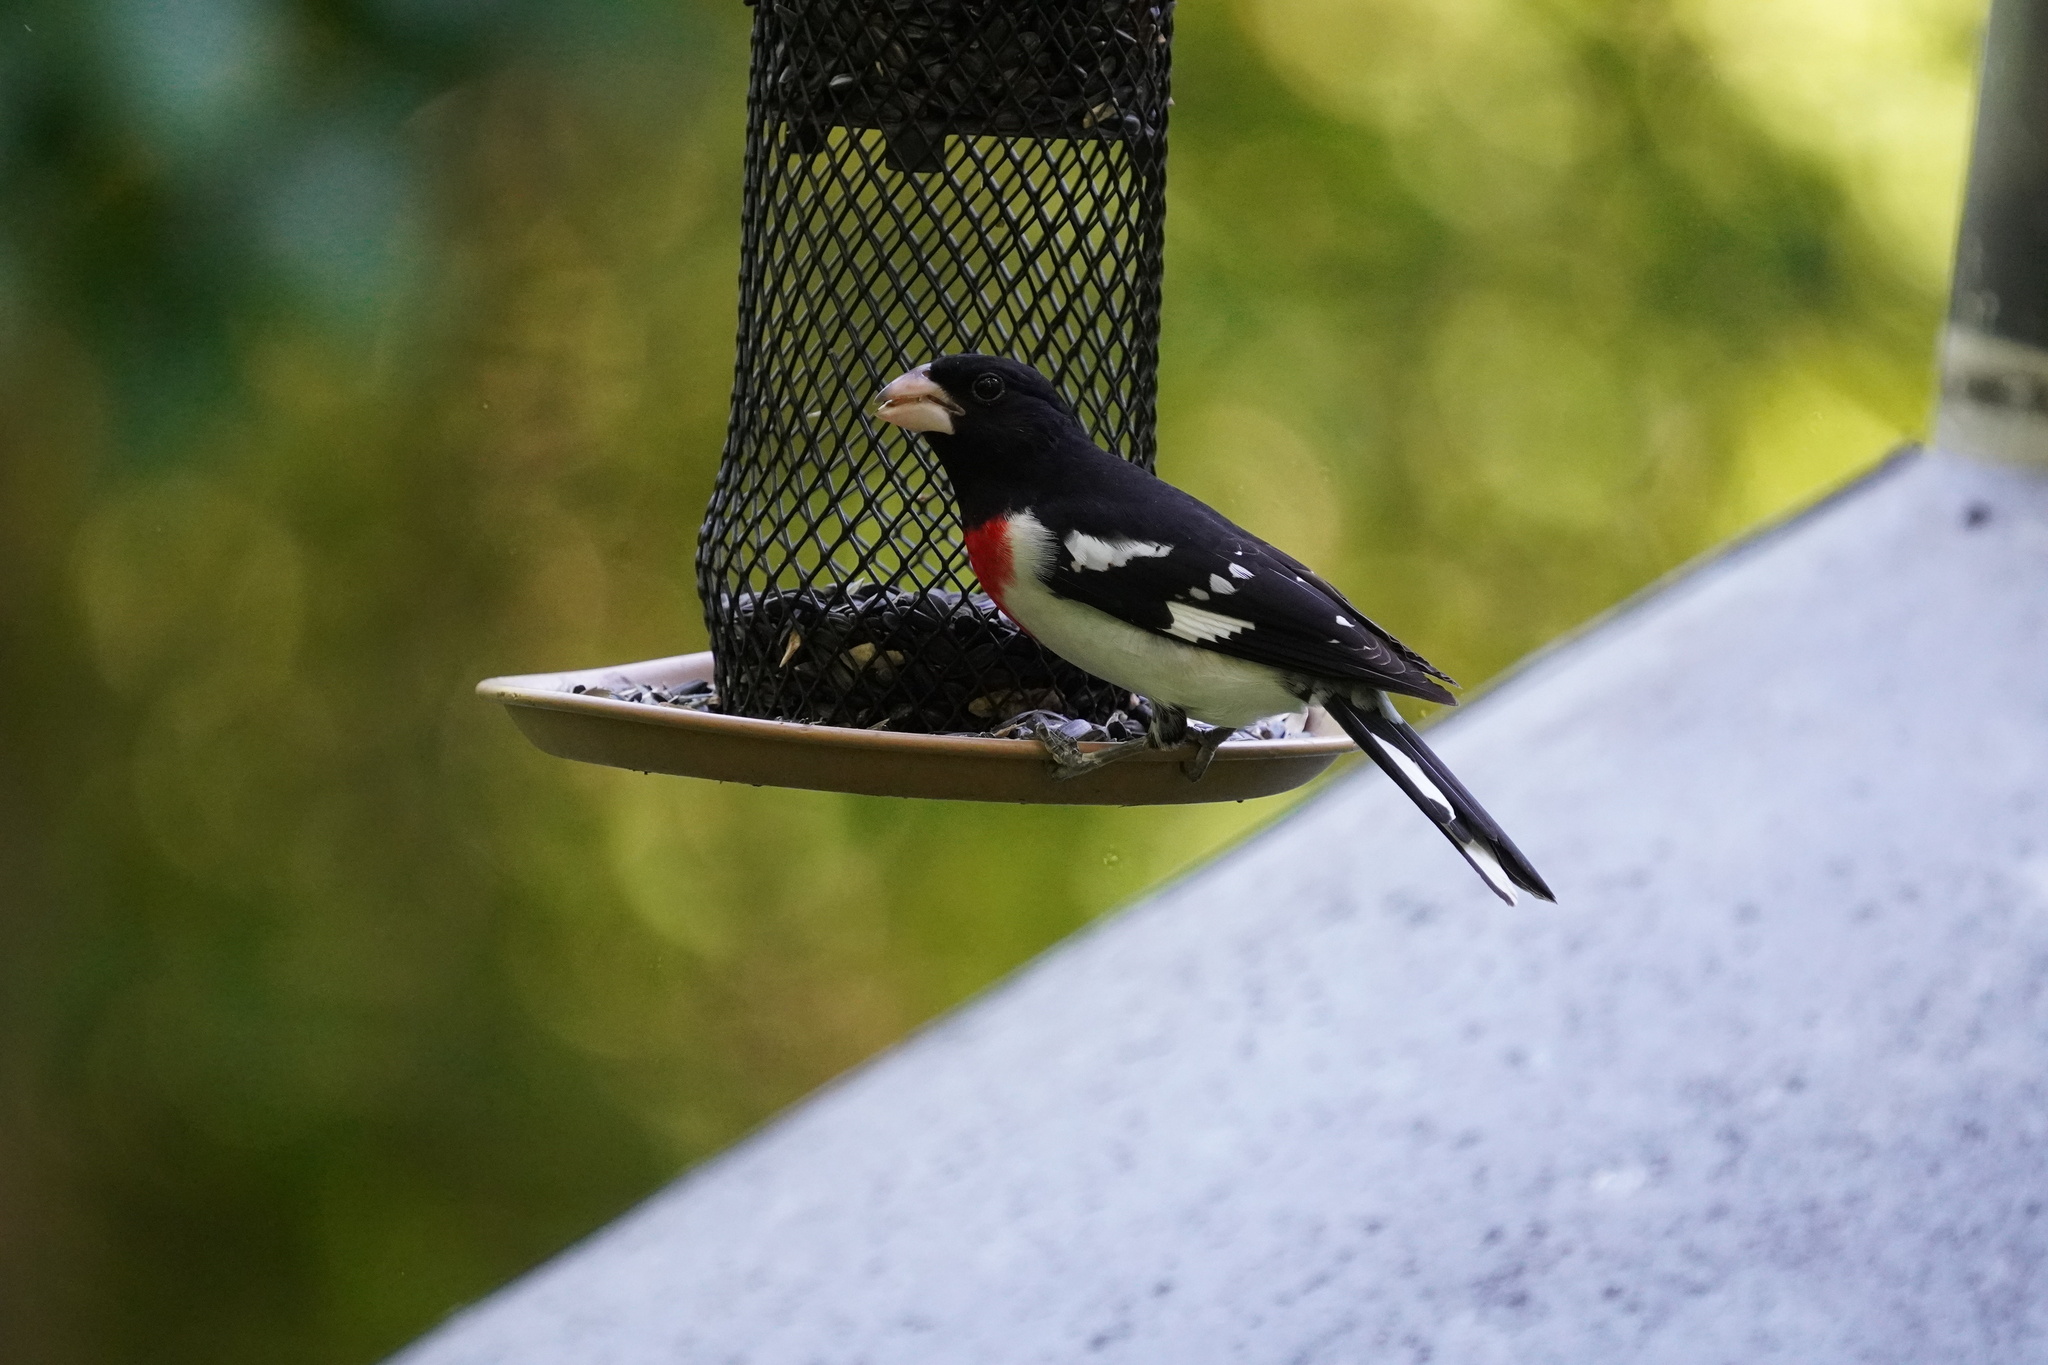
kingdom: Animalia
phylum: Chordata
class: Aves
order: Passeriformes
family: Cardinalidae
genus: Pheucticus
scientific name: Pheucticus ludovicianus
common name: Rose-breasted grosbeak
